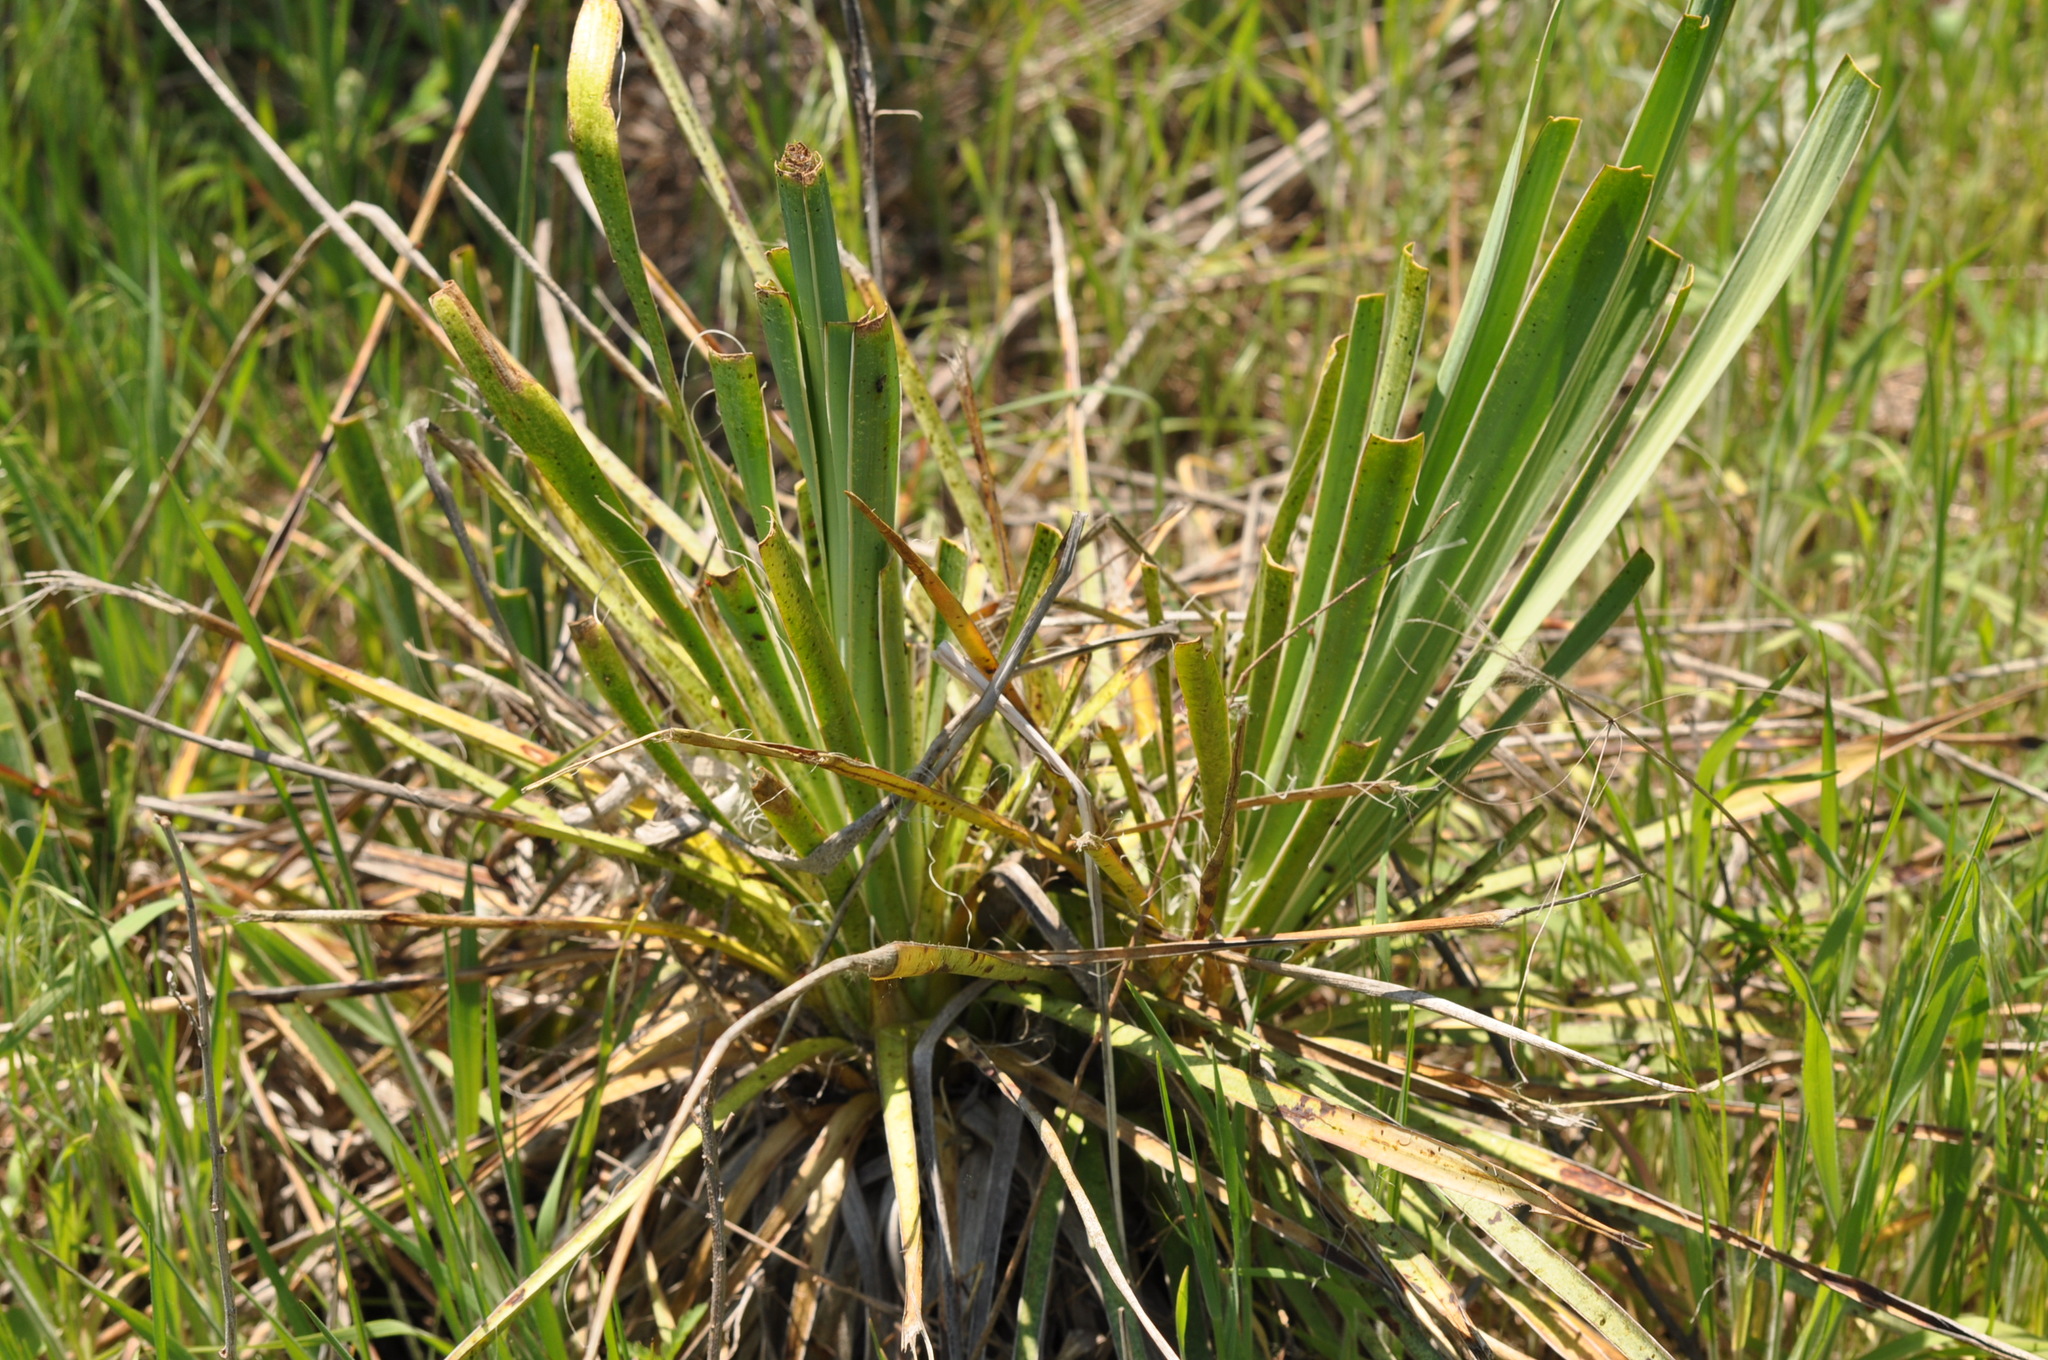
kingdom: Plantae
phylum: Tracheophyta
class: Liliopsida
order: Asparagales
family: Asparagaceae
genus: Yucca
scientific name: Yucca arkansana
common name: Arkansas yucca
